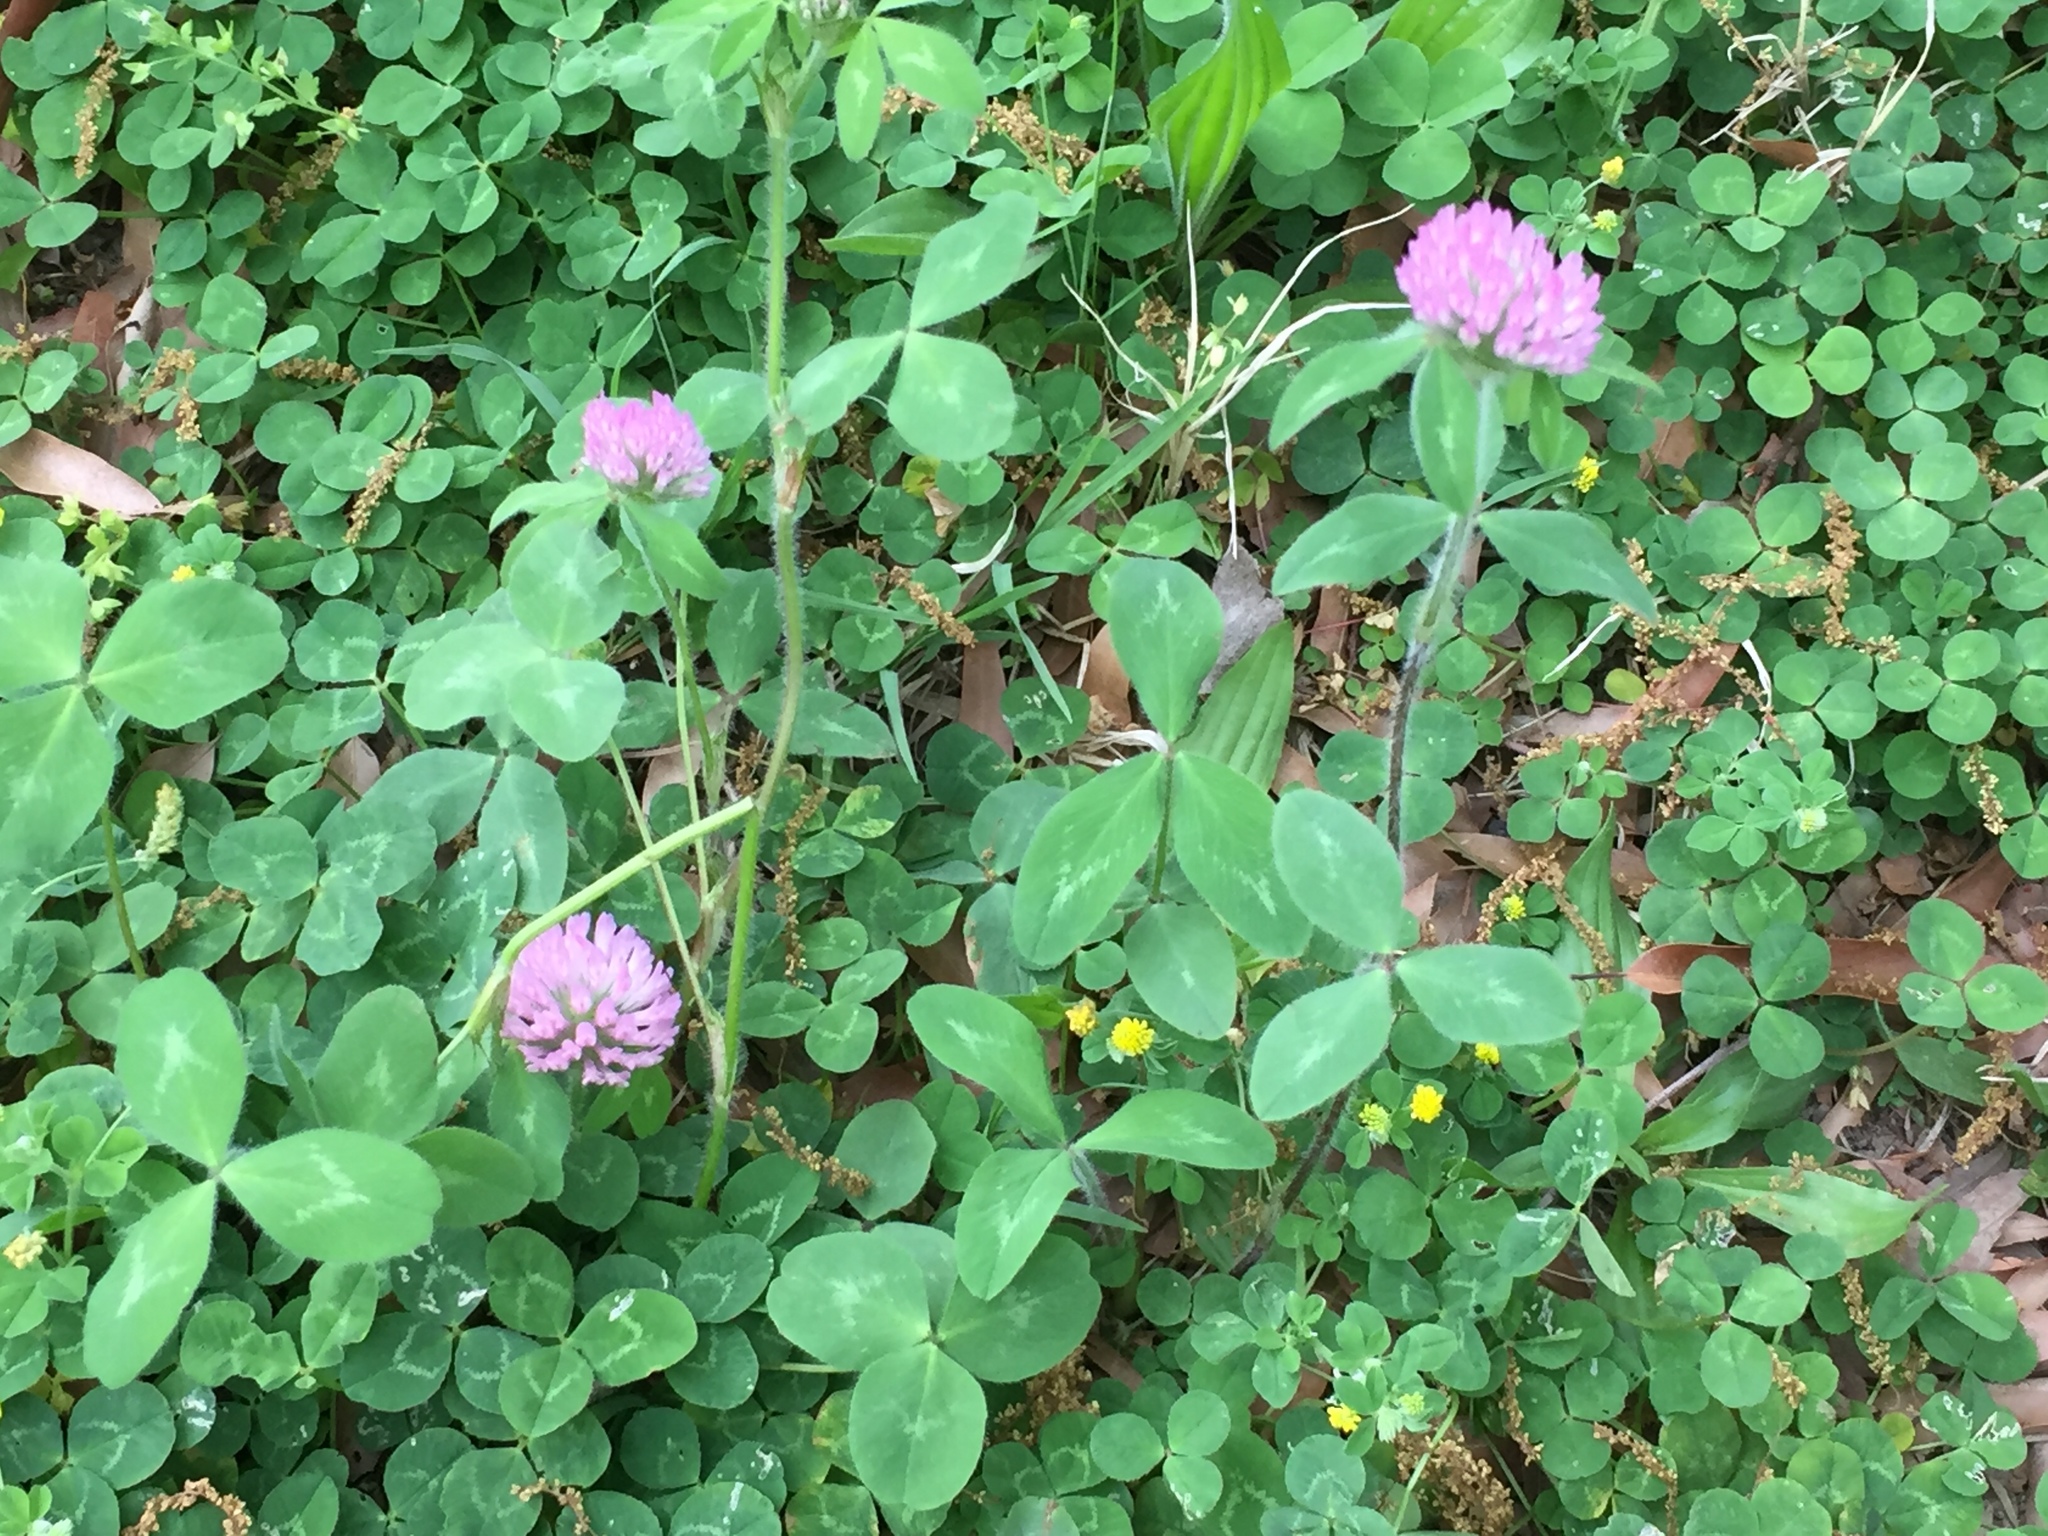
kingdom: Plantae
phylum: Tracheophyta
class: Magnoliopsida
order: Fabales
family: Fabaceae
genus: Trifolium
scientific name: Trifolium pratense
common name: Red clover
